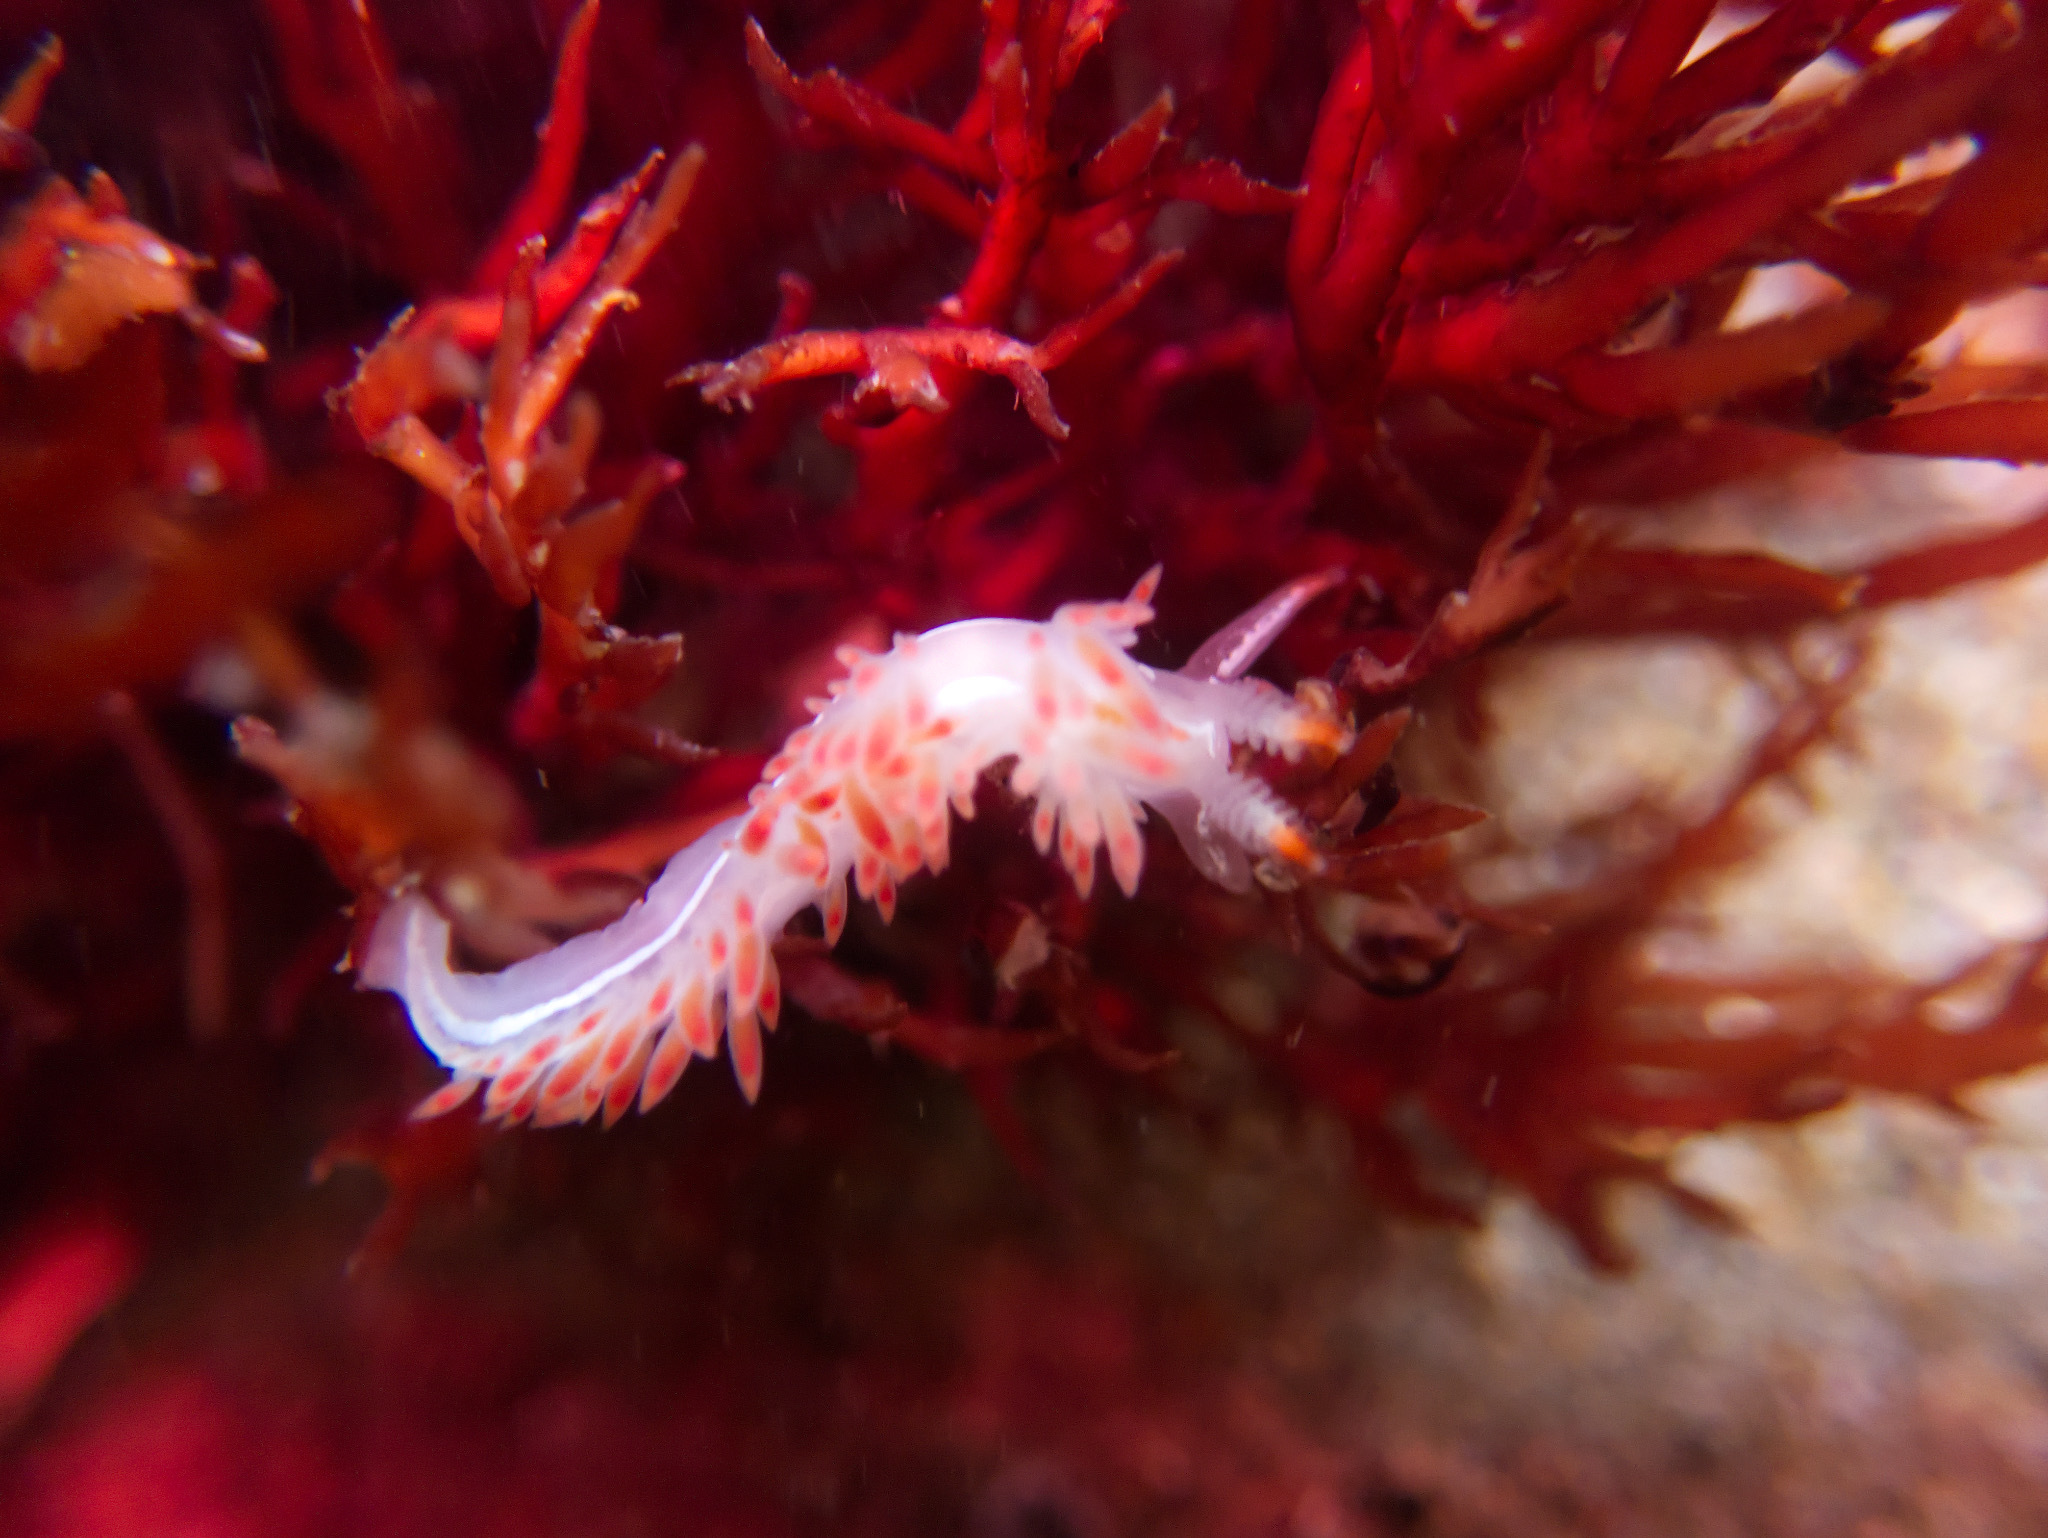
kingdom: Animalia
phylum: Mollusca
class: Gastropoda
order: Nudibranchia
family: Coryphellidae
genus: Coryphella
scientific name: Coryphella trilineata
